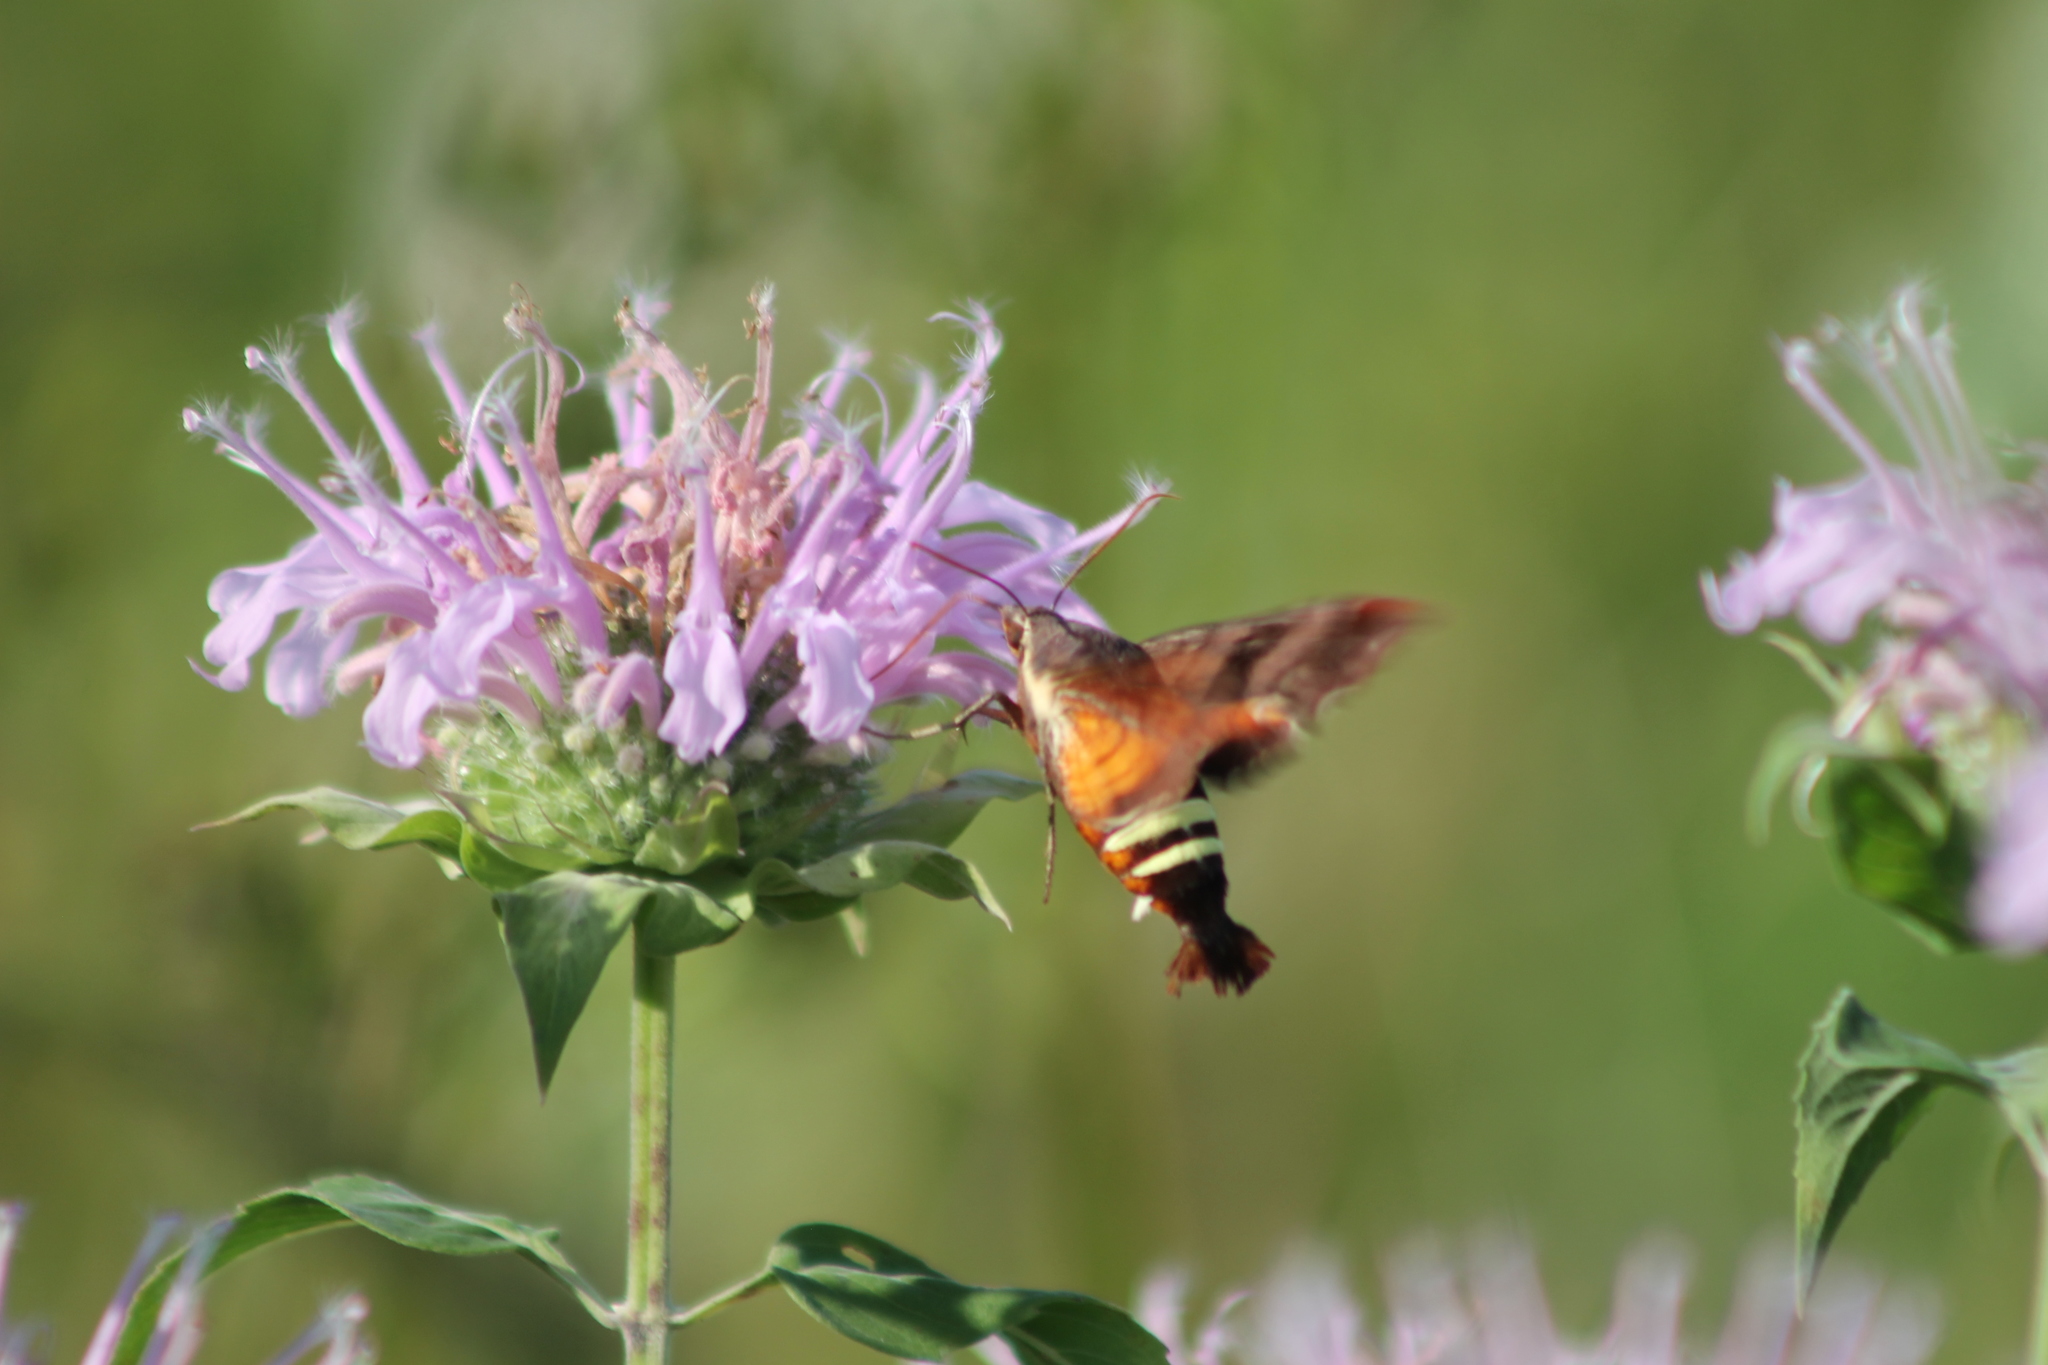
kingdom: Animalia
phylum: Arthropoda
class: Insecta
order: Lepidoptera
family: Sphingidae
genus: Amphion
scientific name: Amphion floridensis
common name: Nessus sphinx
